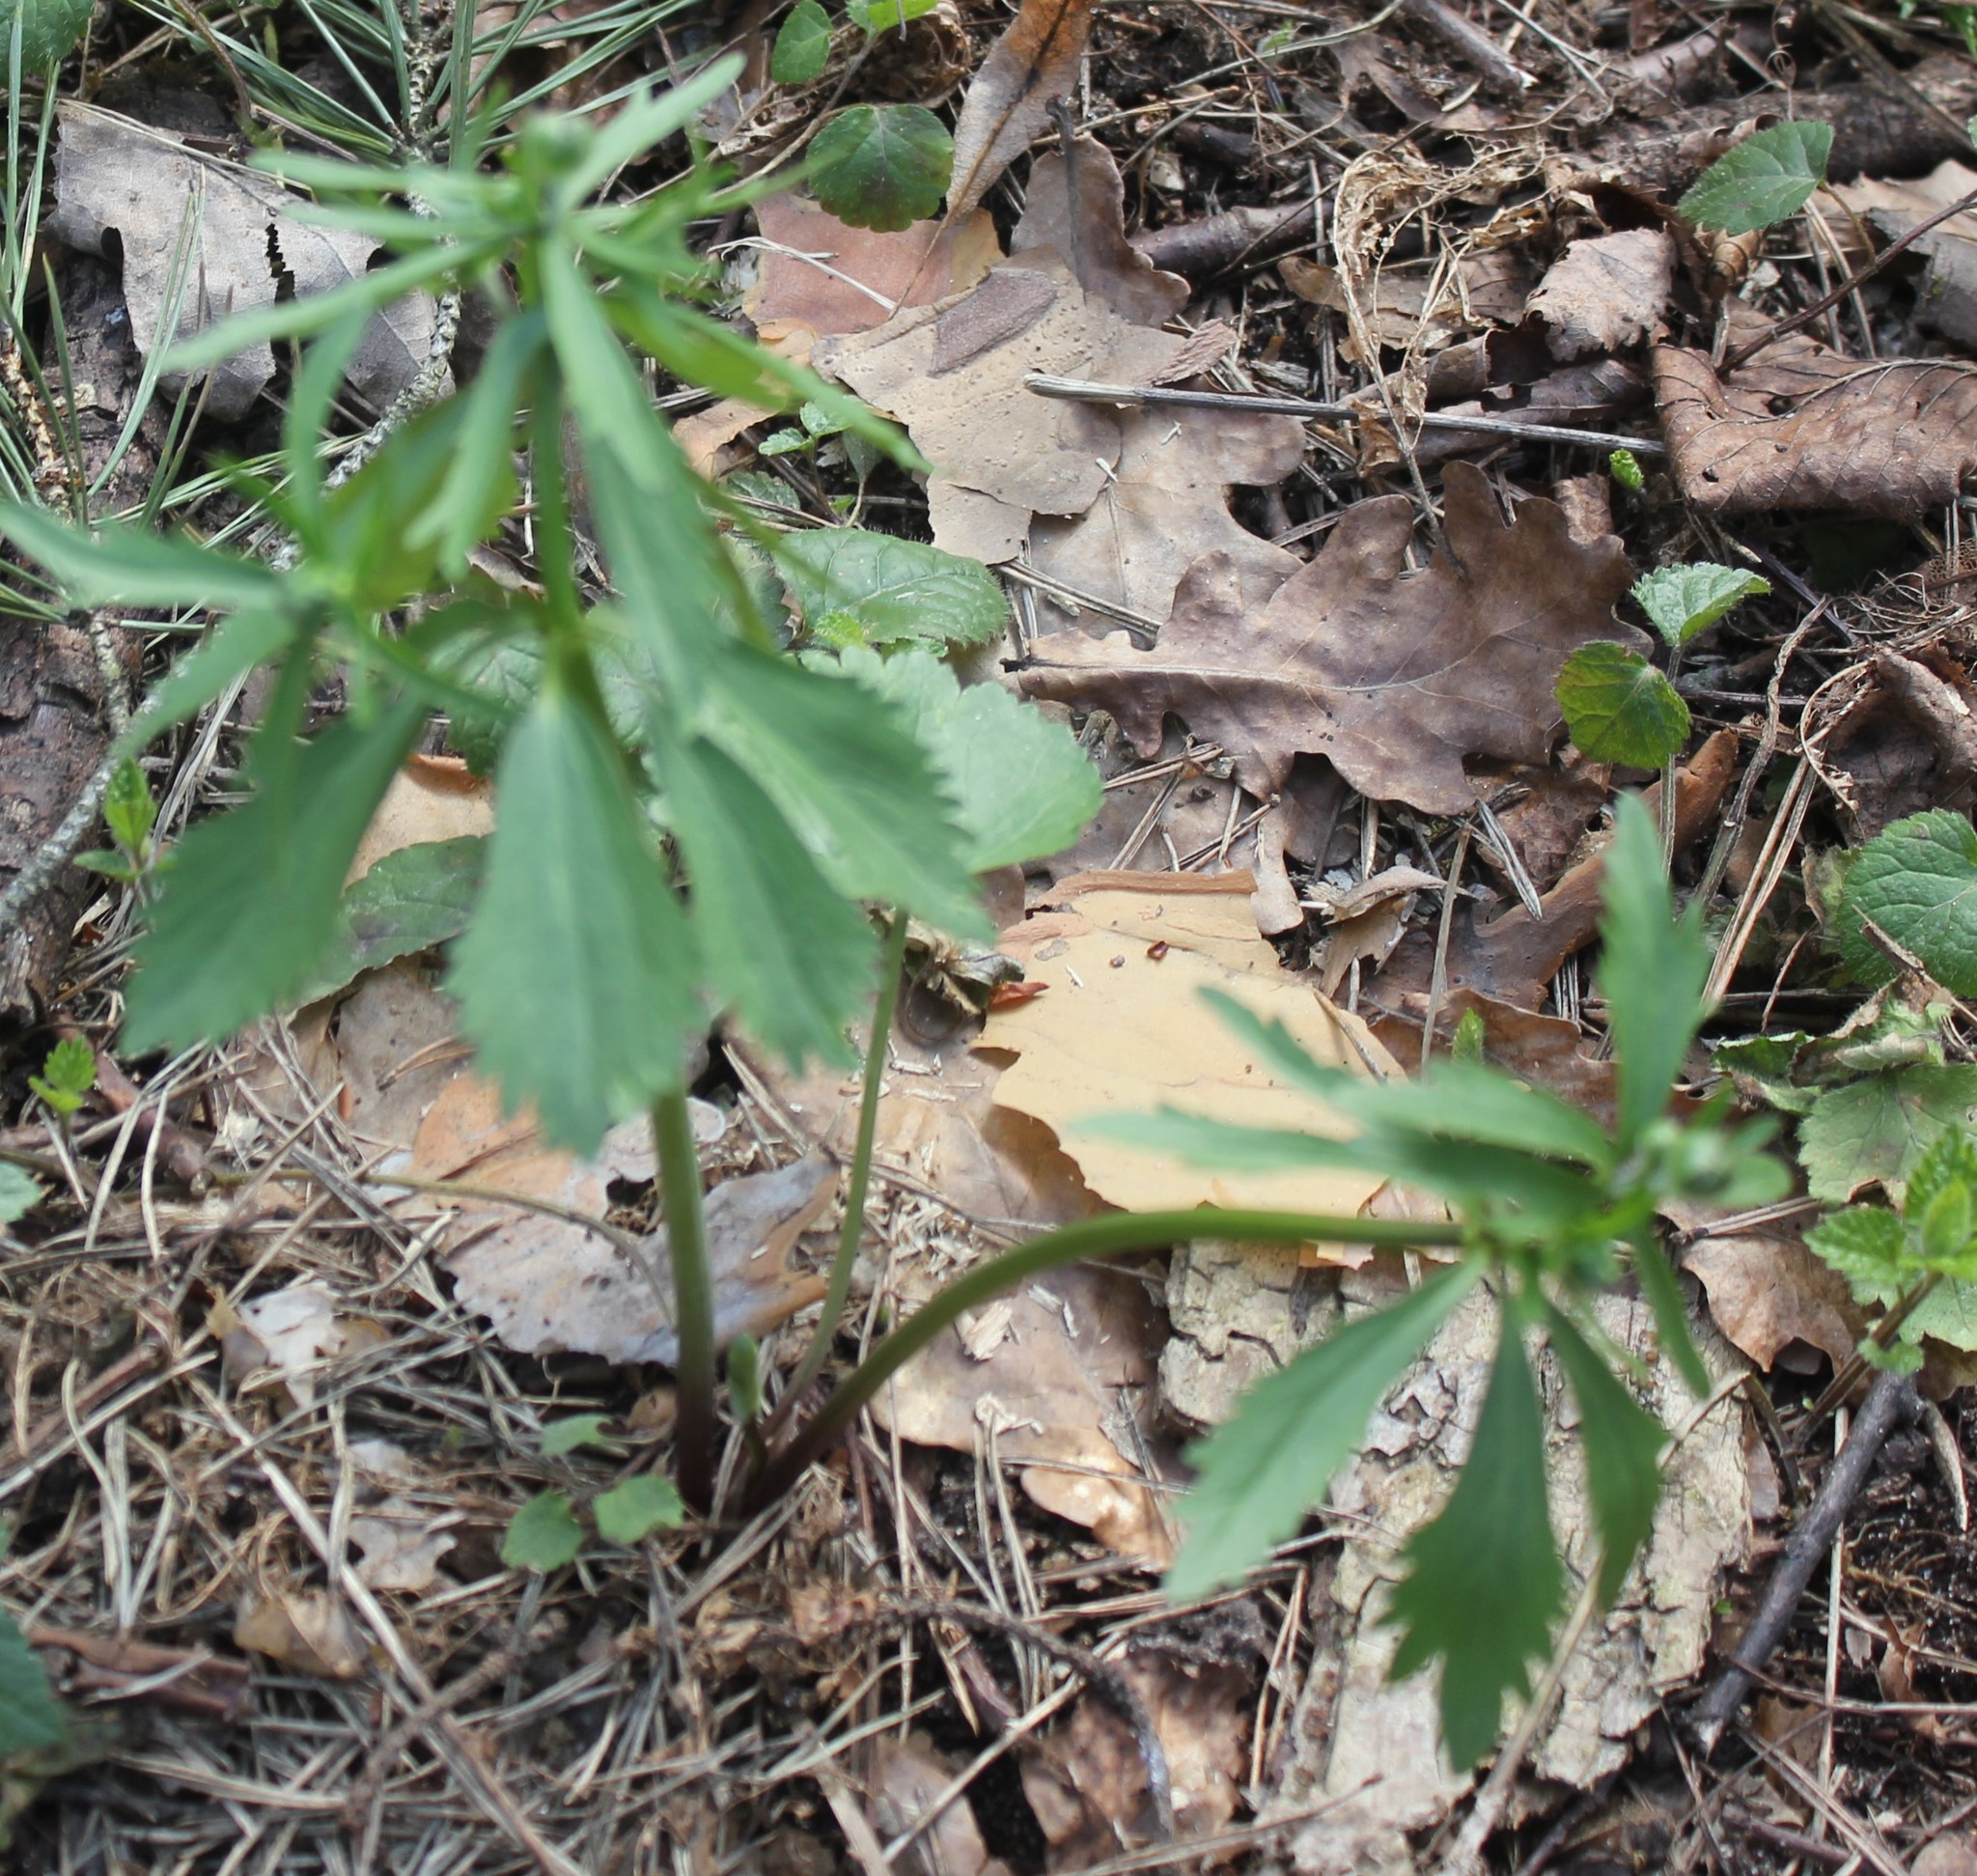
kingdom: Plantae
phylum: Tracheophyta
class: Magnoliopsida
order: Ranunculales
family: Ranunculaceae
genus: Ranunculus
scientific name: Ranunculus cassubicus
